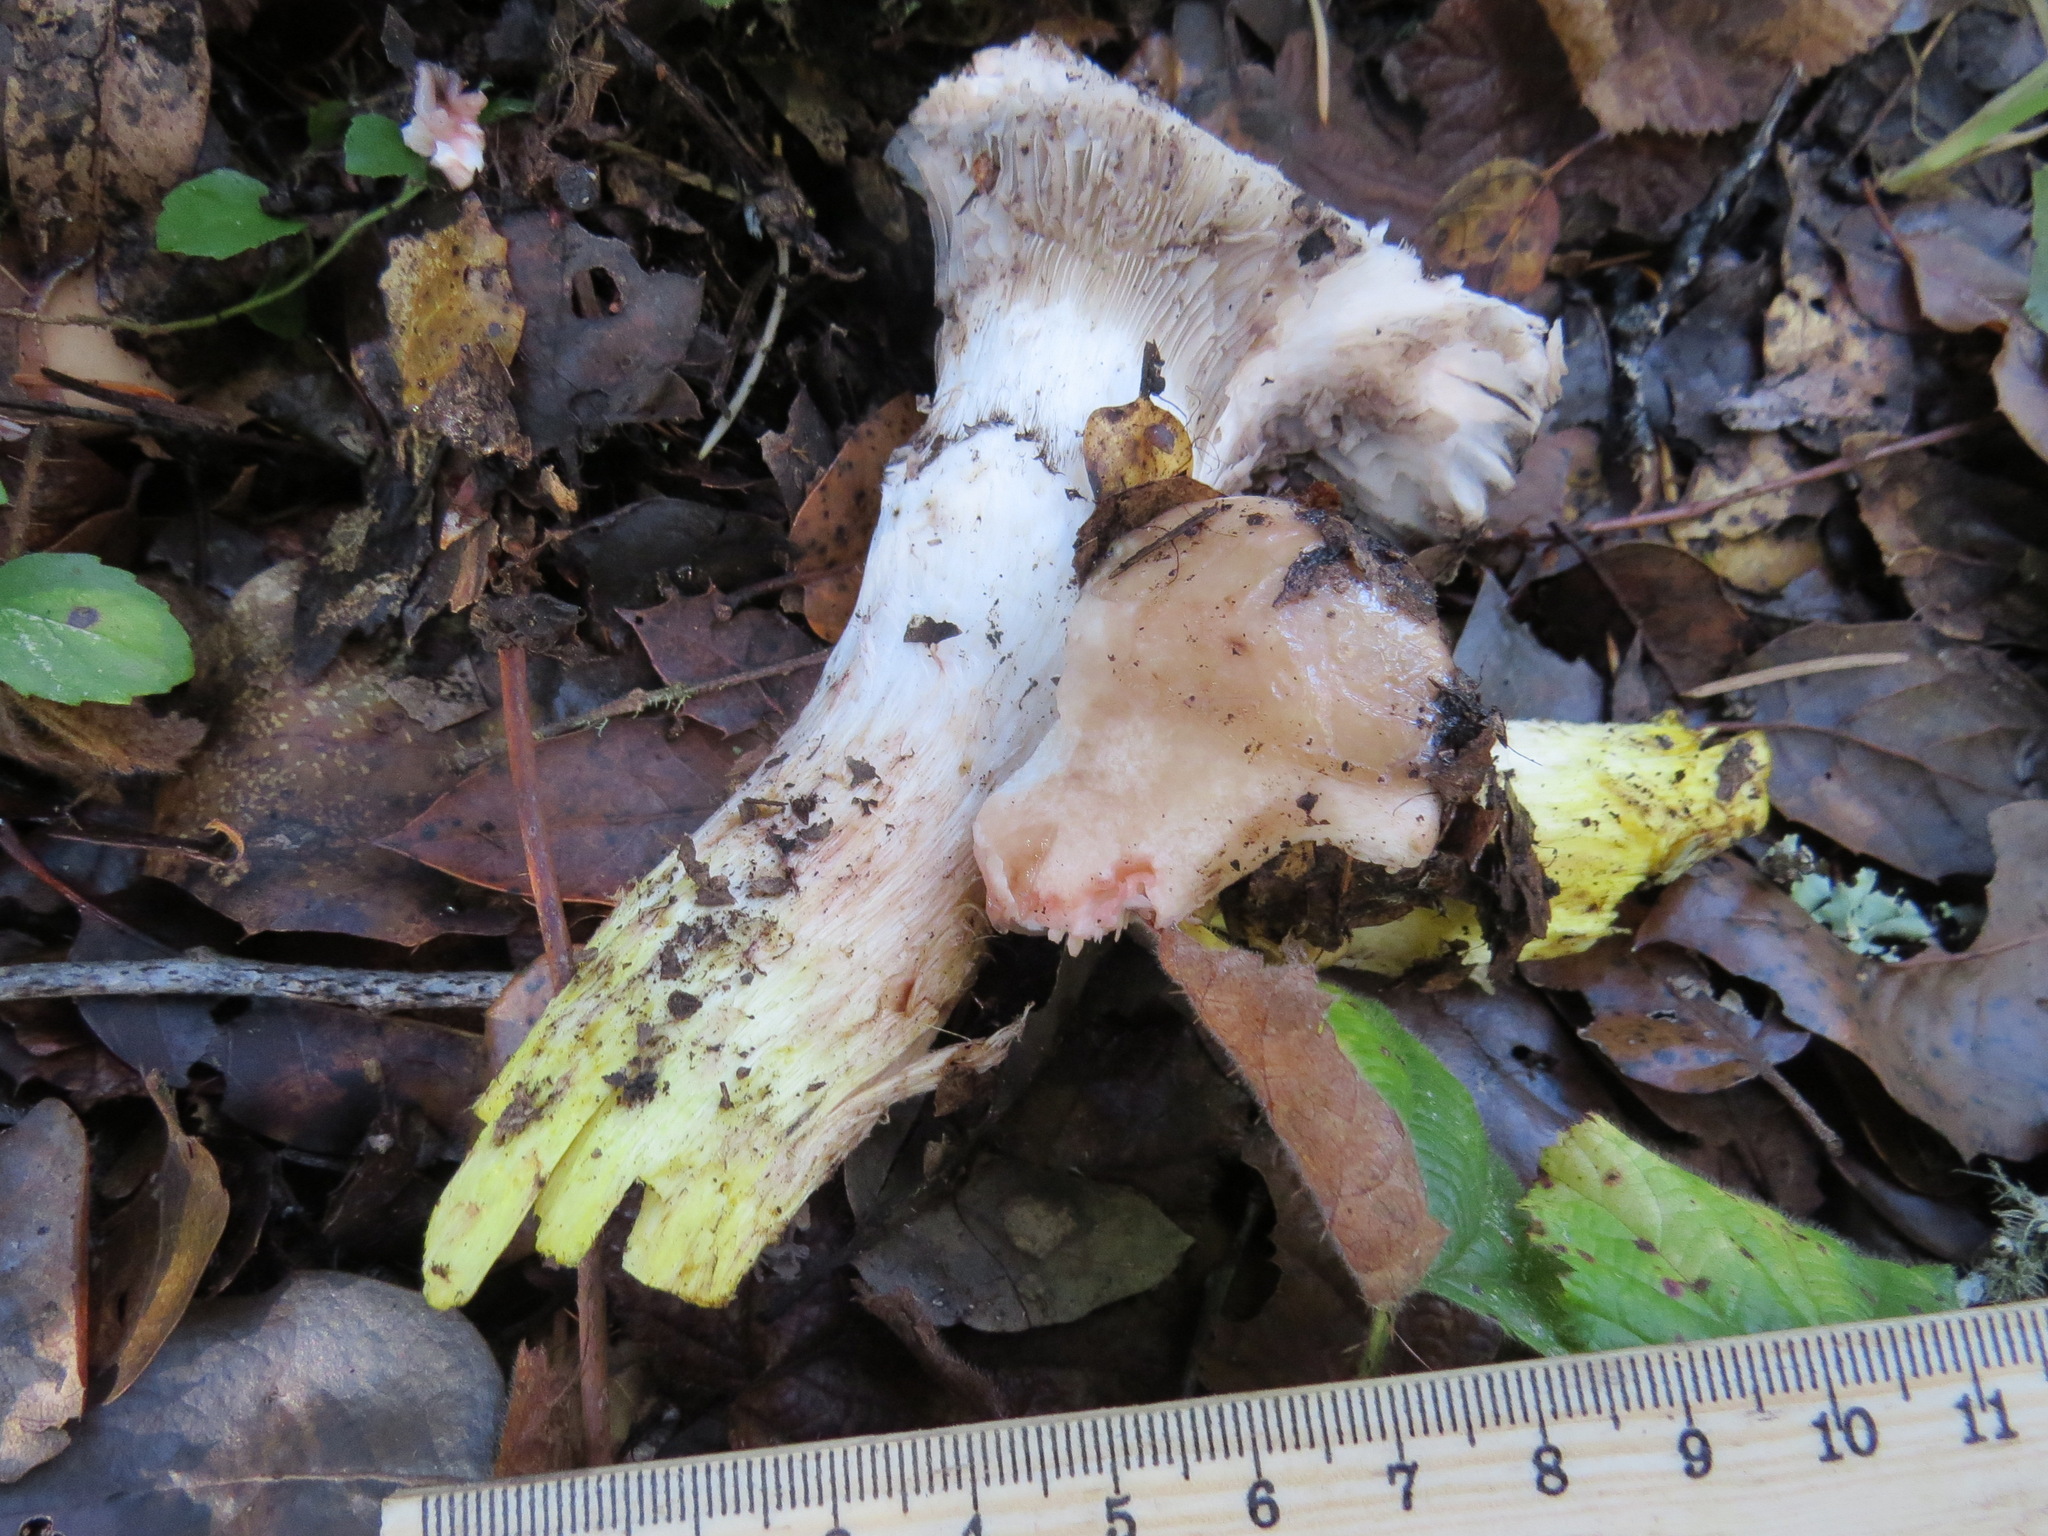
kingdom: Fungi
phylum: Basidiomycota
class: Agaricomycetes
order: Boletales
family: Gomphidiaceae
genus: Gomphidius
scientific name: Gomphidius oregonensis
